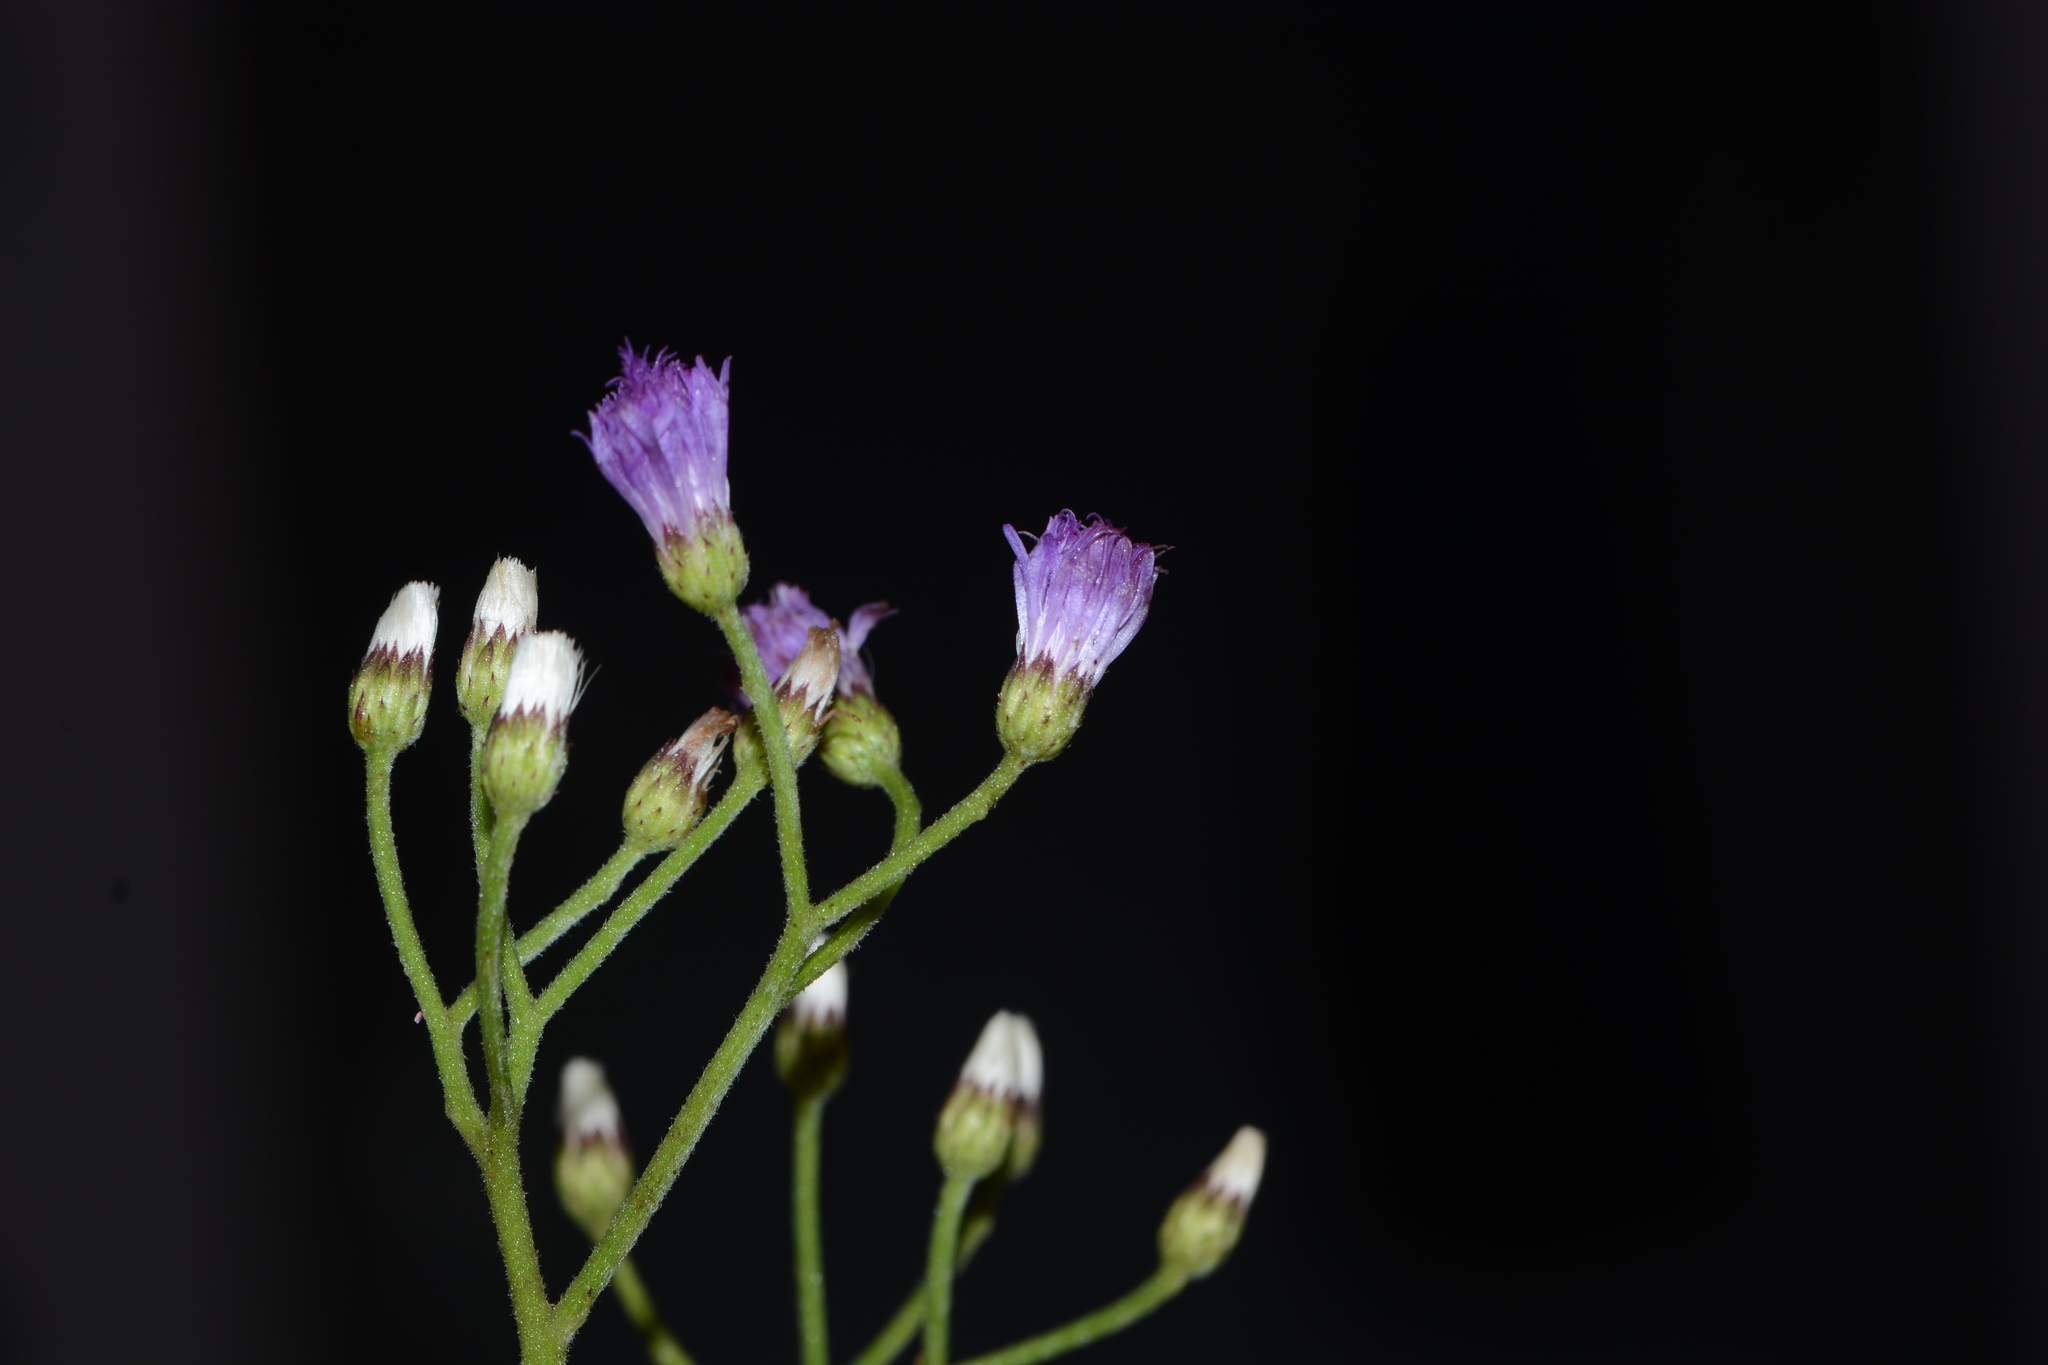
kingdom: Plantae
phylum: Tracheophyta
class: Magnoliopsida
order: Asterales
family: Asteraceae
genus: Cyanthillium
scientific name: Cyanthillium albicans
